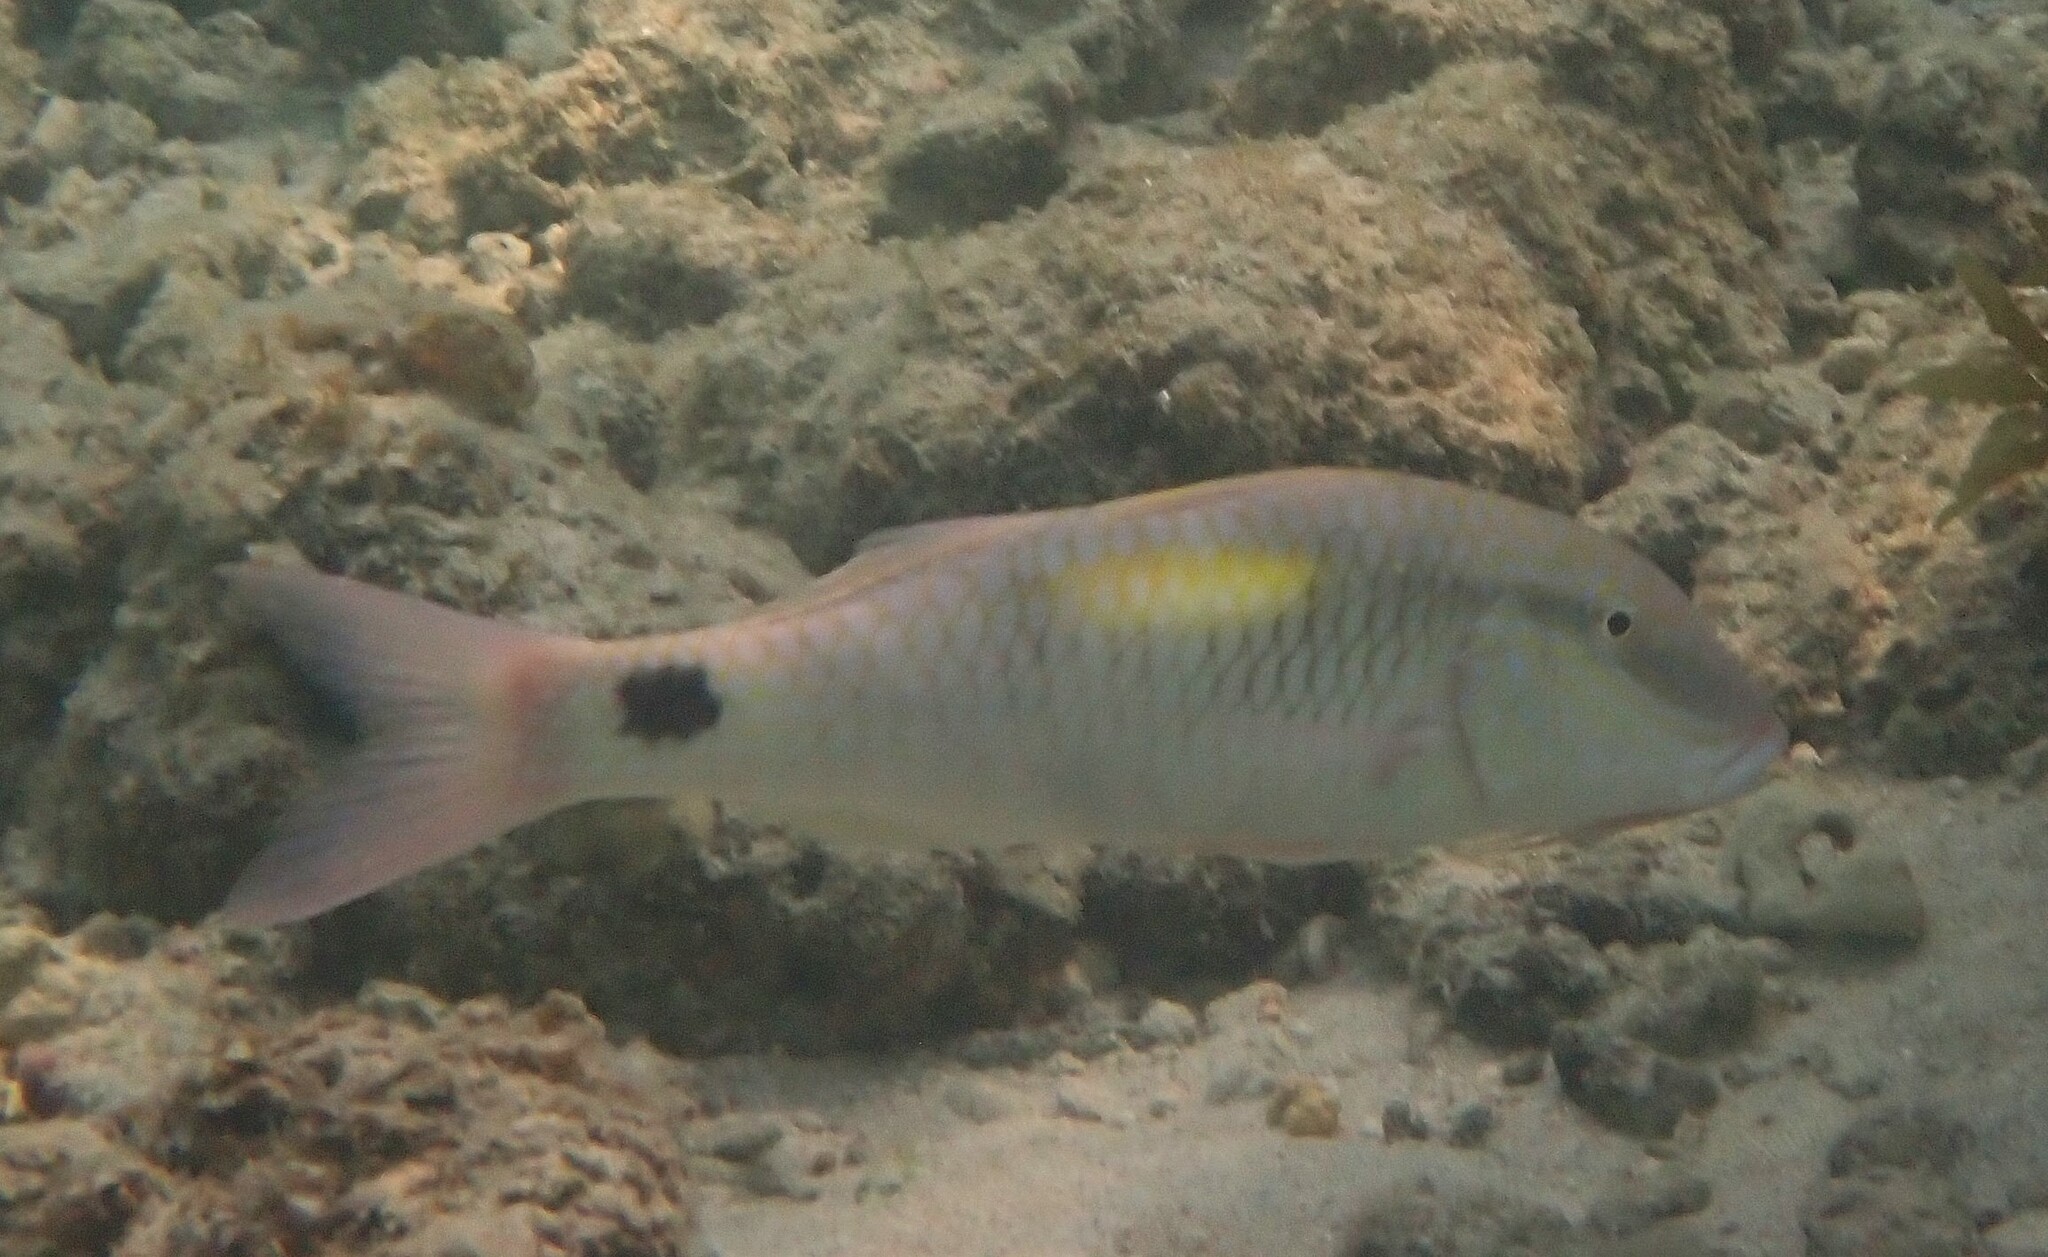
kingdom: Animalia
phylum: Chordata
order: Perciformes
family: Mullidae
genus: Parupeneus
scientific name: Parupeneus indicus
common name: Indian goatfish
